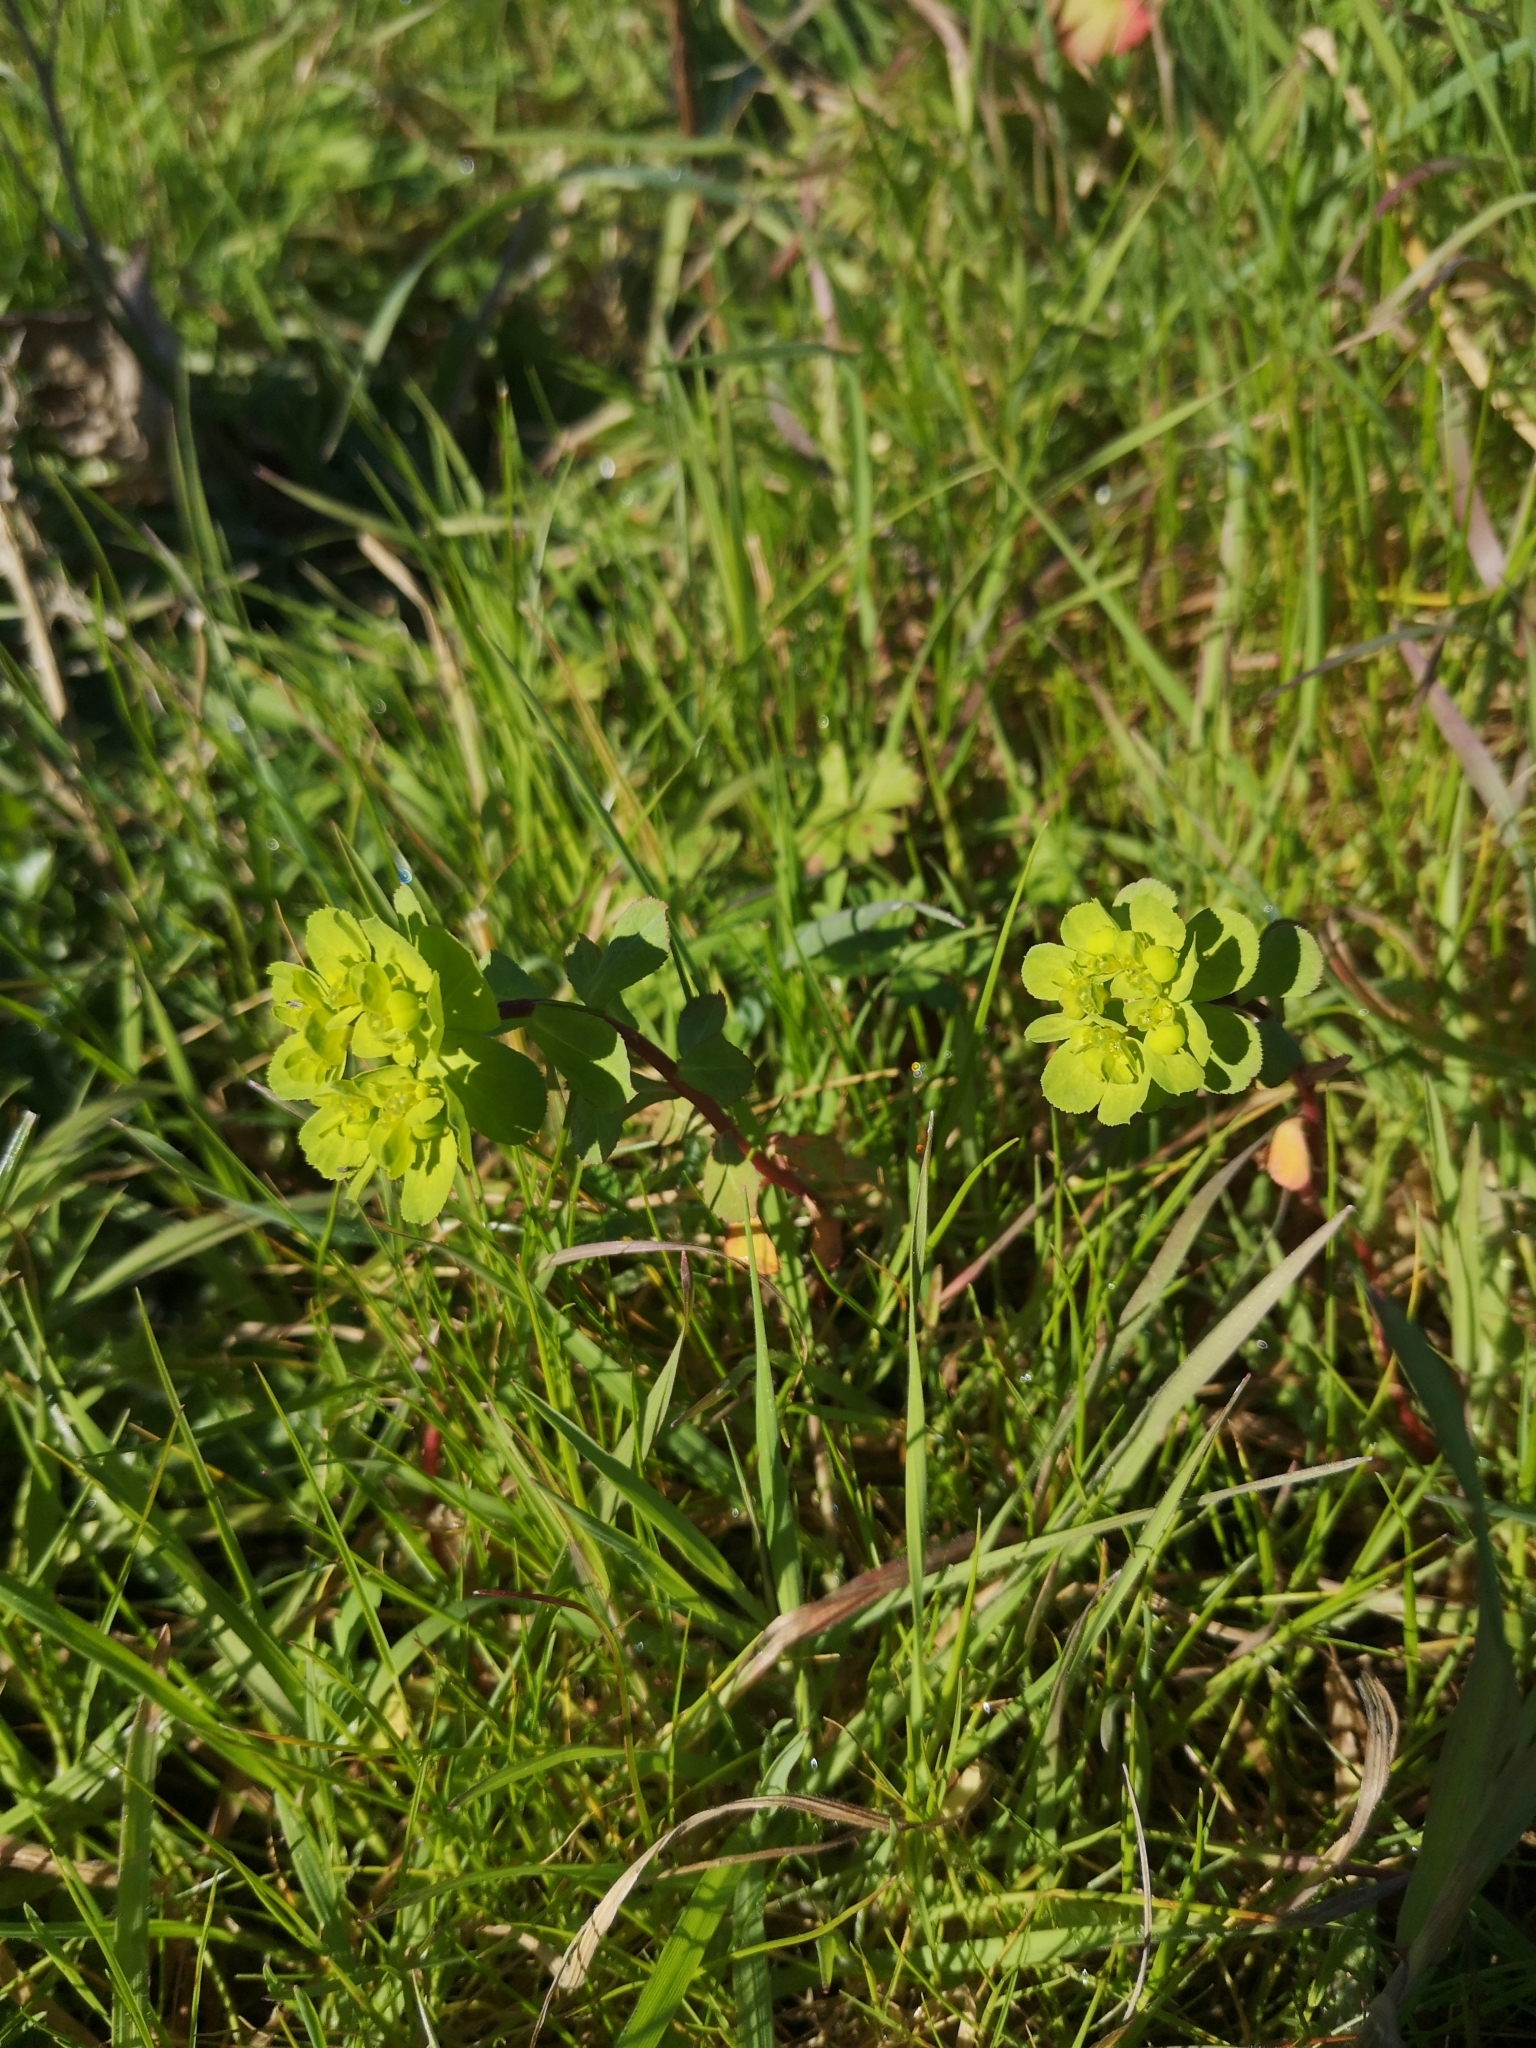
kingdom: Plantae
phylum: Tracheophyta
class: Magnoliopsida
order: Malpighiales
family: Euphorbiaceae
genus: Euphorbia
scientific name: Euphorbia helioscopia
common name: Sun spurge
